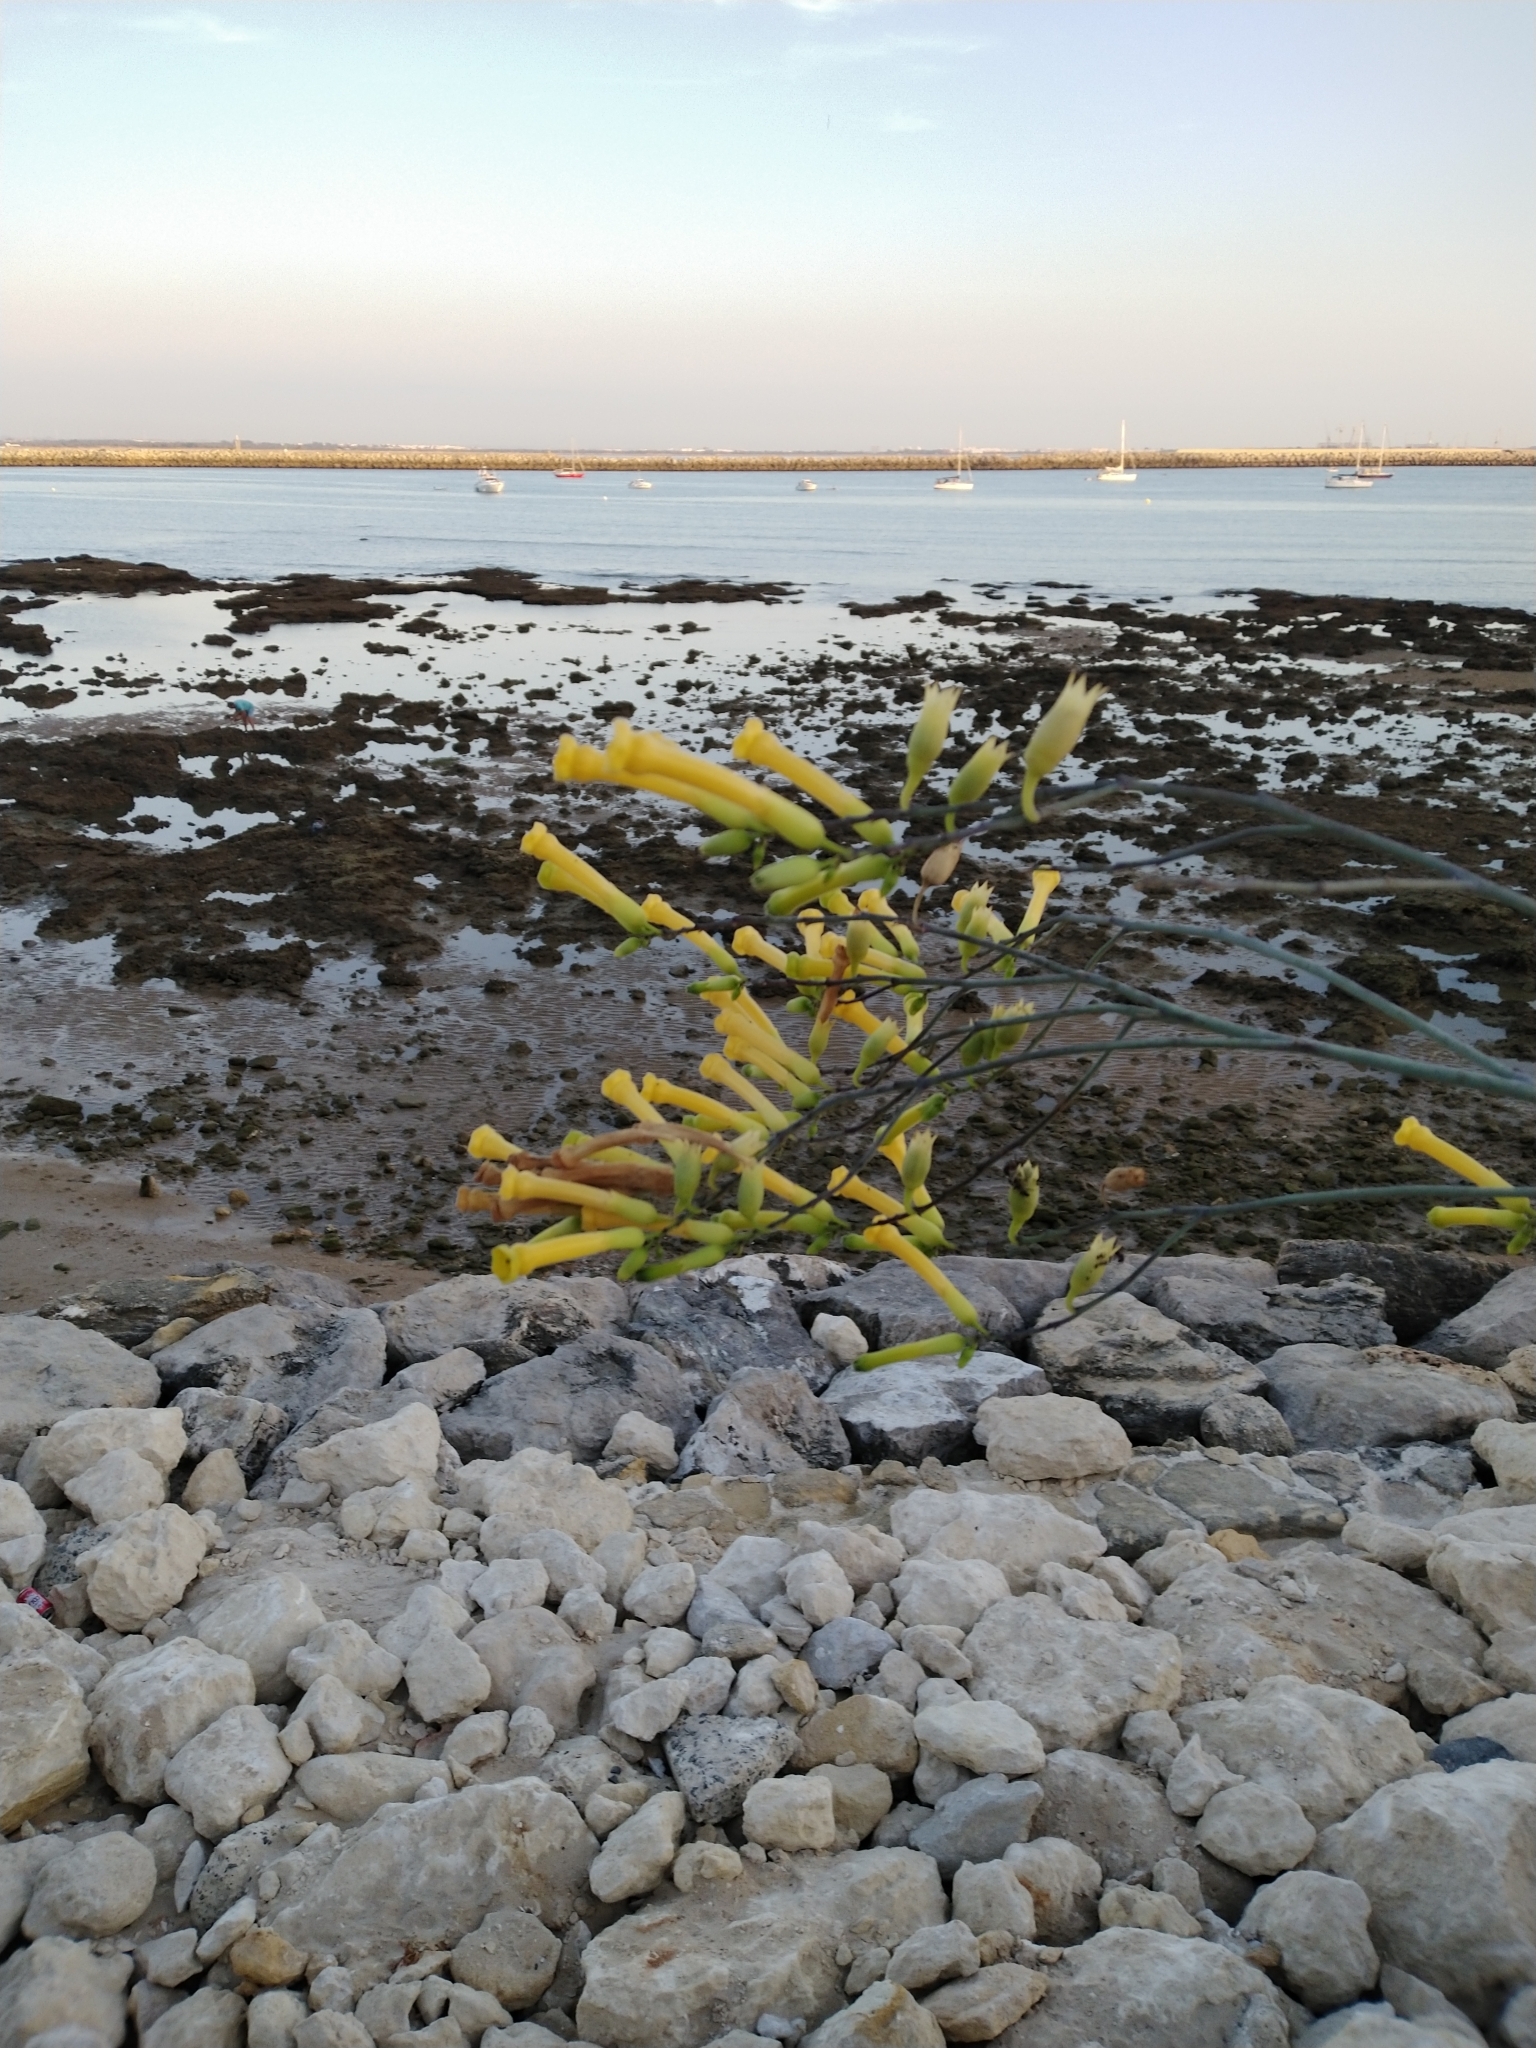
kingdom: Plantae
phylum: Tracheophyta
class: Magnoliopsida
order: Solanales
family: Solanaceae
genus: Nicotiana
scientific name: Nicotiana glauca
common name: Tree tobacco
